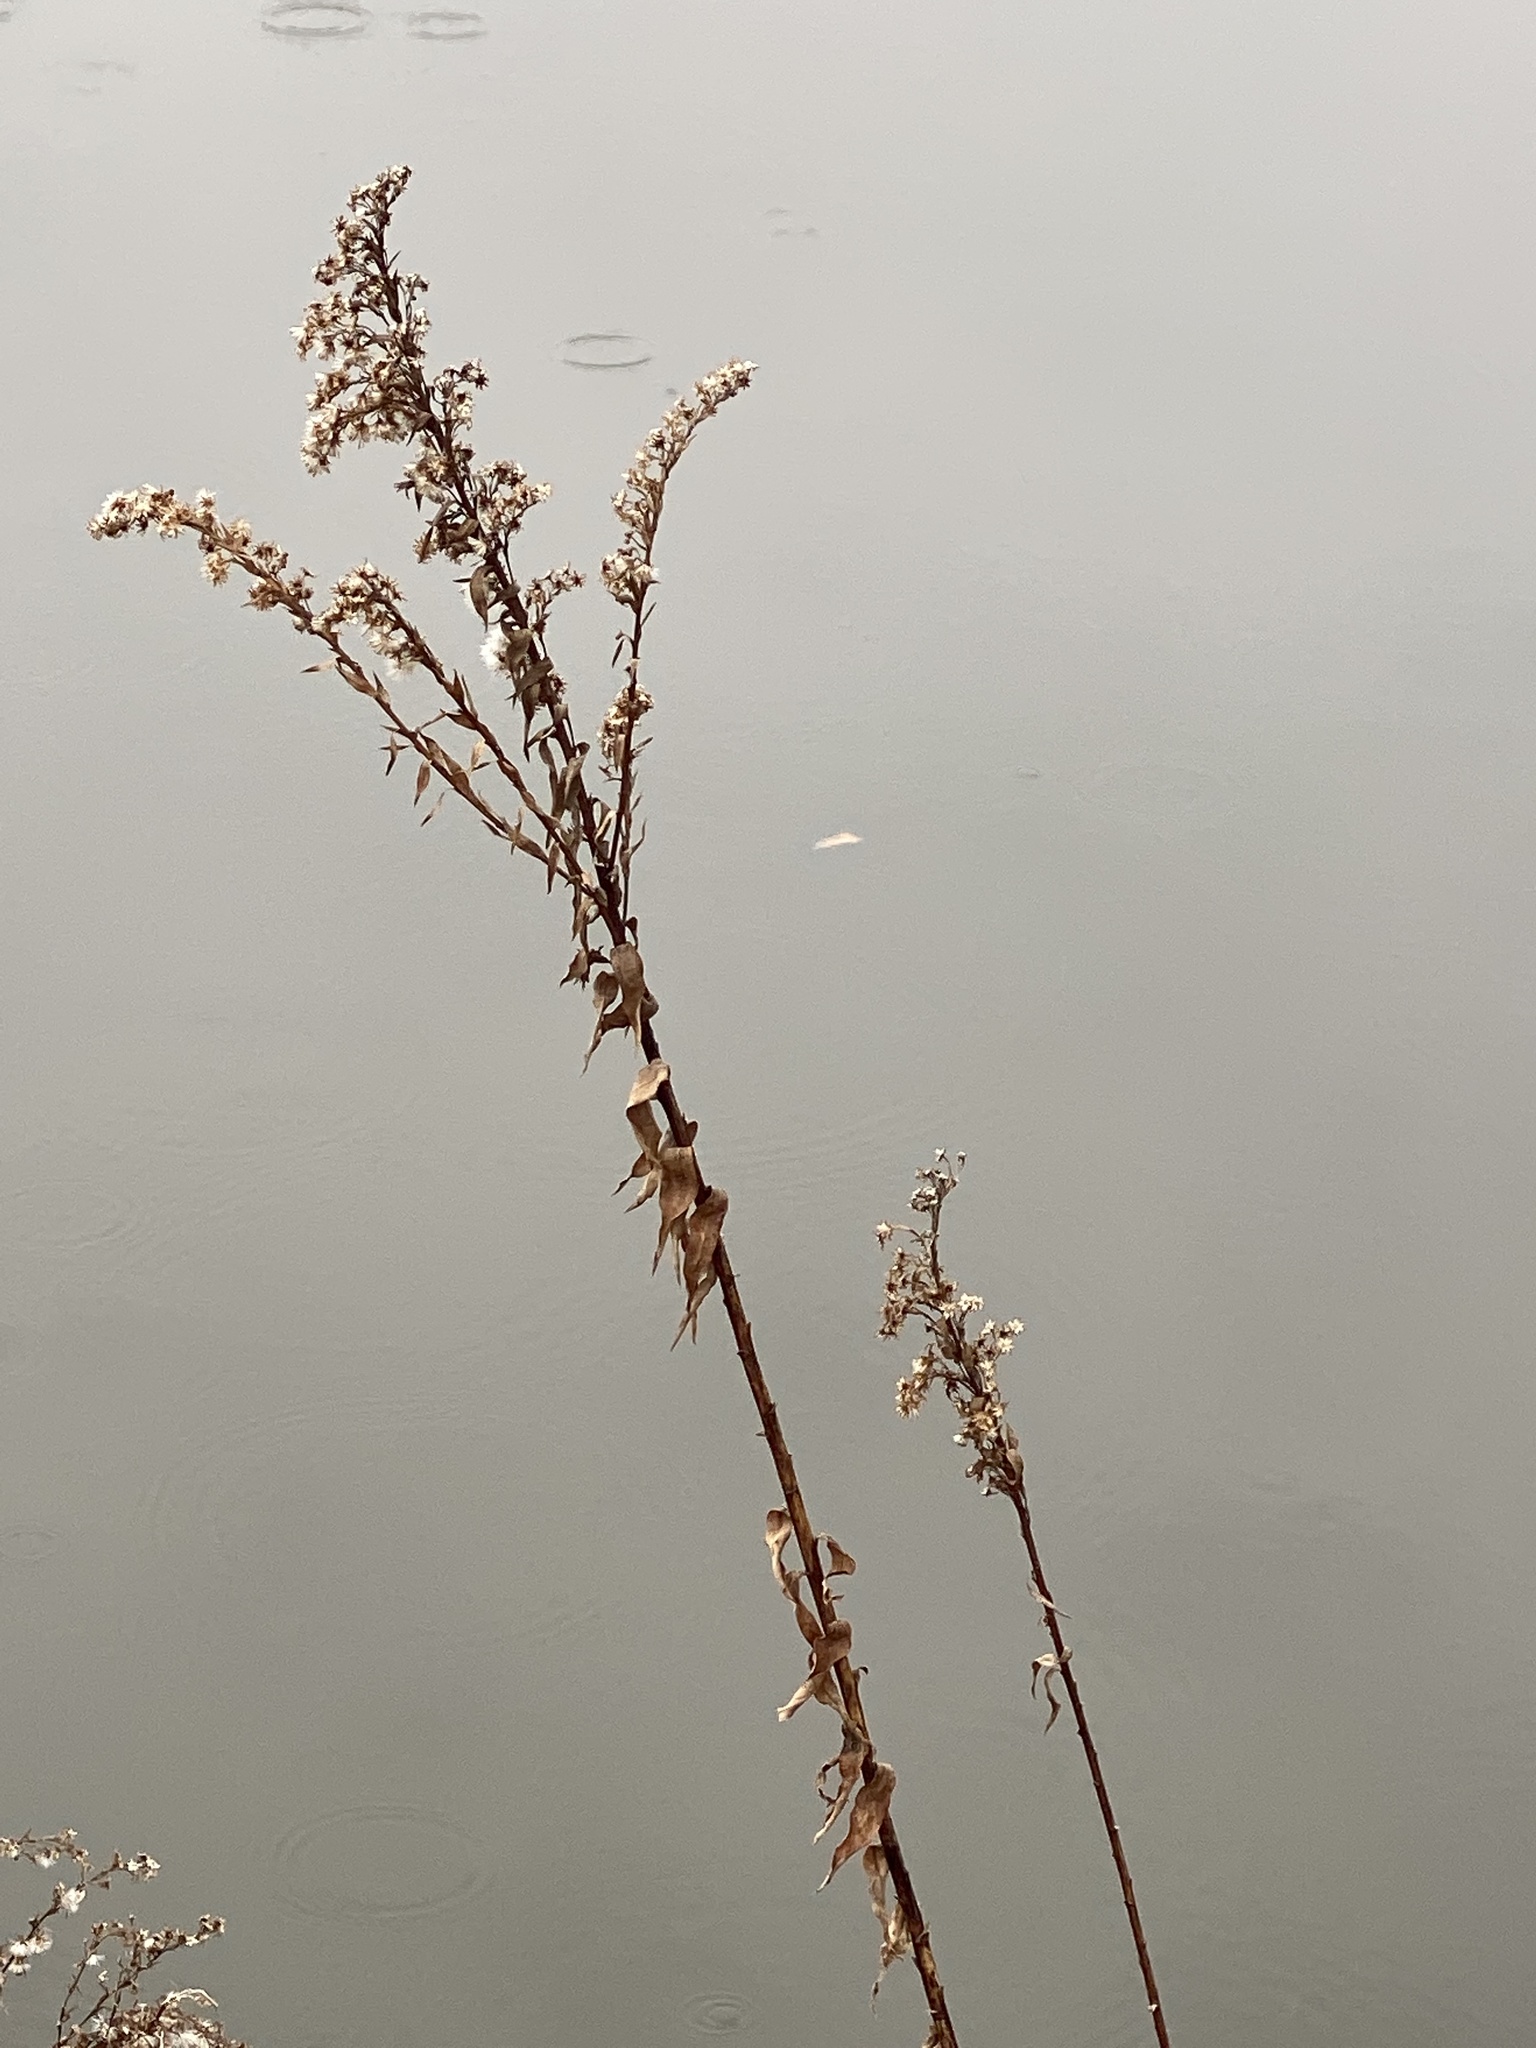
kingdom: Plantae
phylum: Tracheophyta
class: Magnoliopsida
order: Asterales
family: Asteraceae
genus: Solidago
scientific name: Solidago sempervirens
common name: Salt-marsh goldenrod
